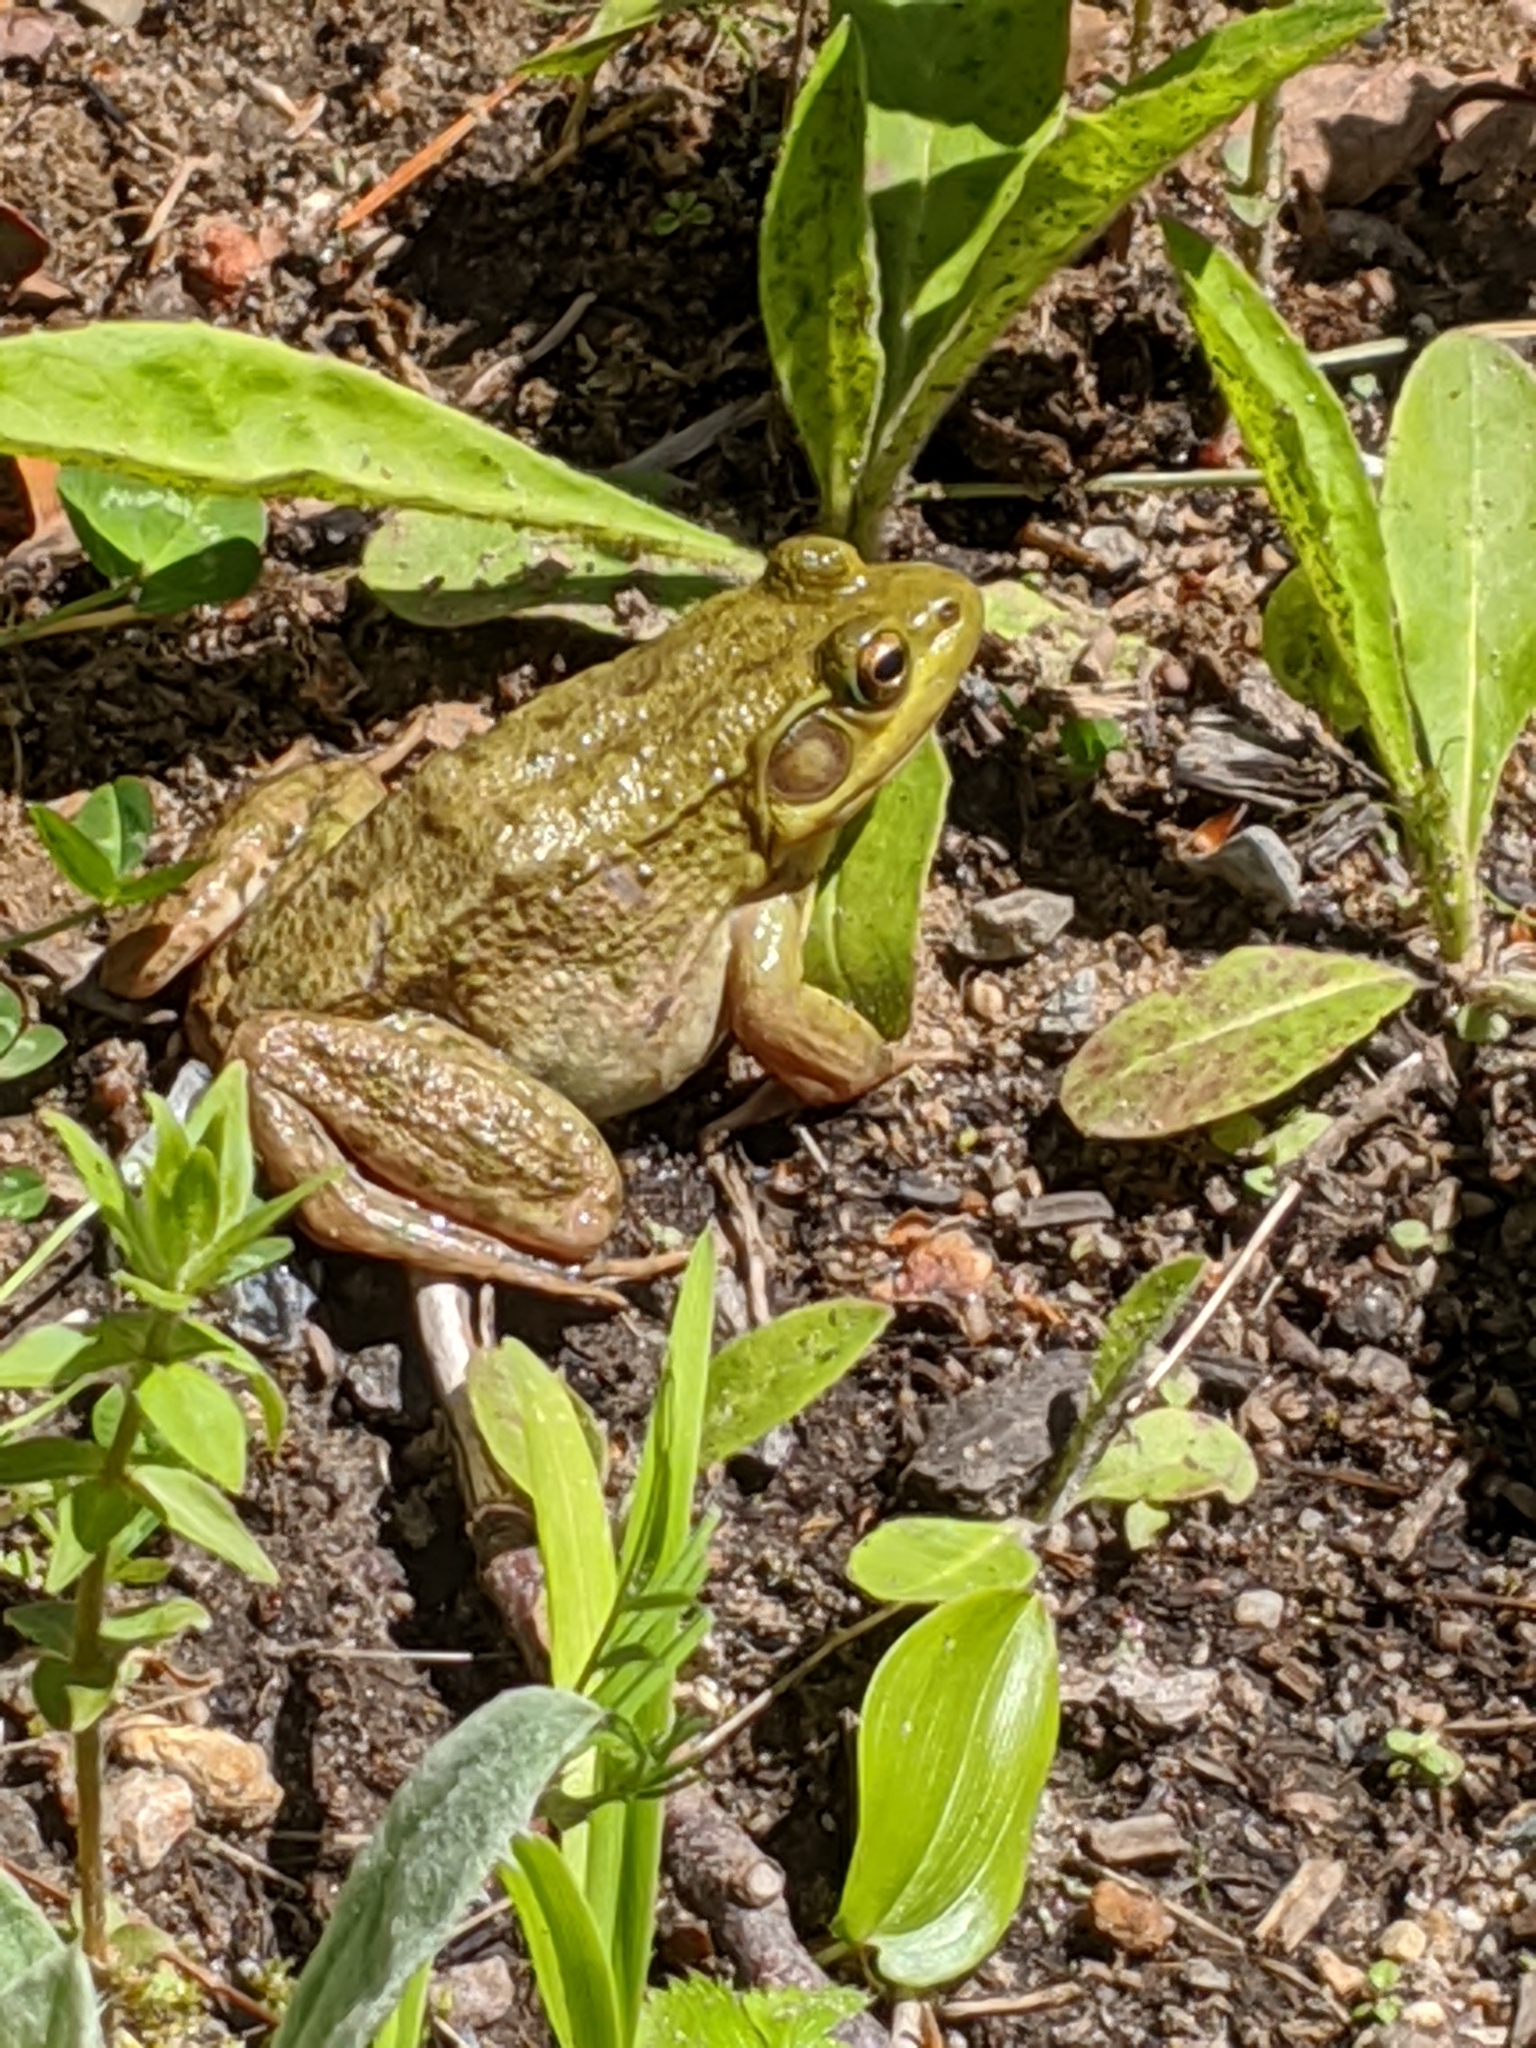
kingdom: Animalia
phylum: Chordata
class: Amphibia
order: Anura
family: Ranidae
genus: Lithobates
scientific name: Lithobates clamitans
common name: Green frog
